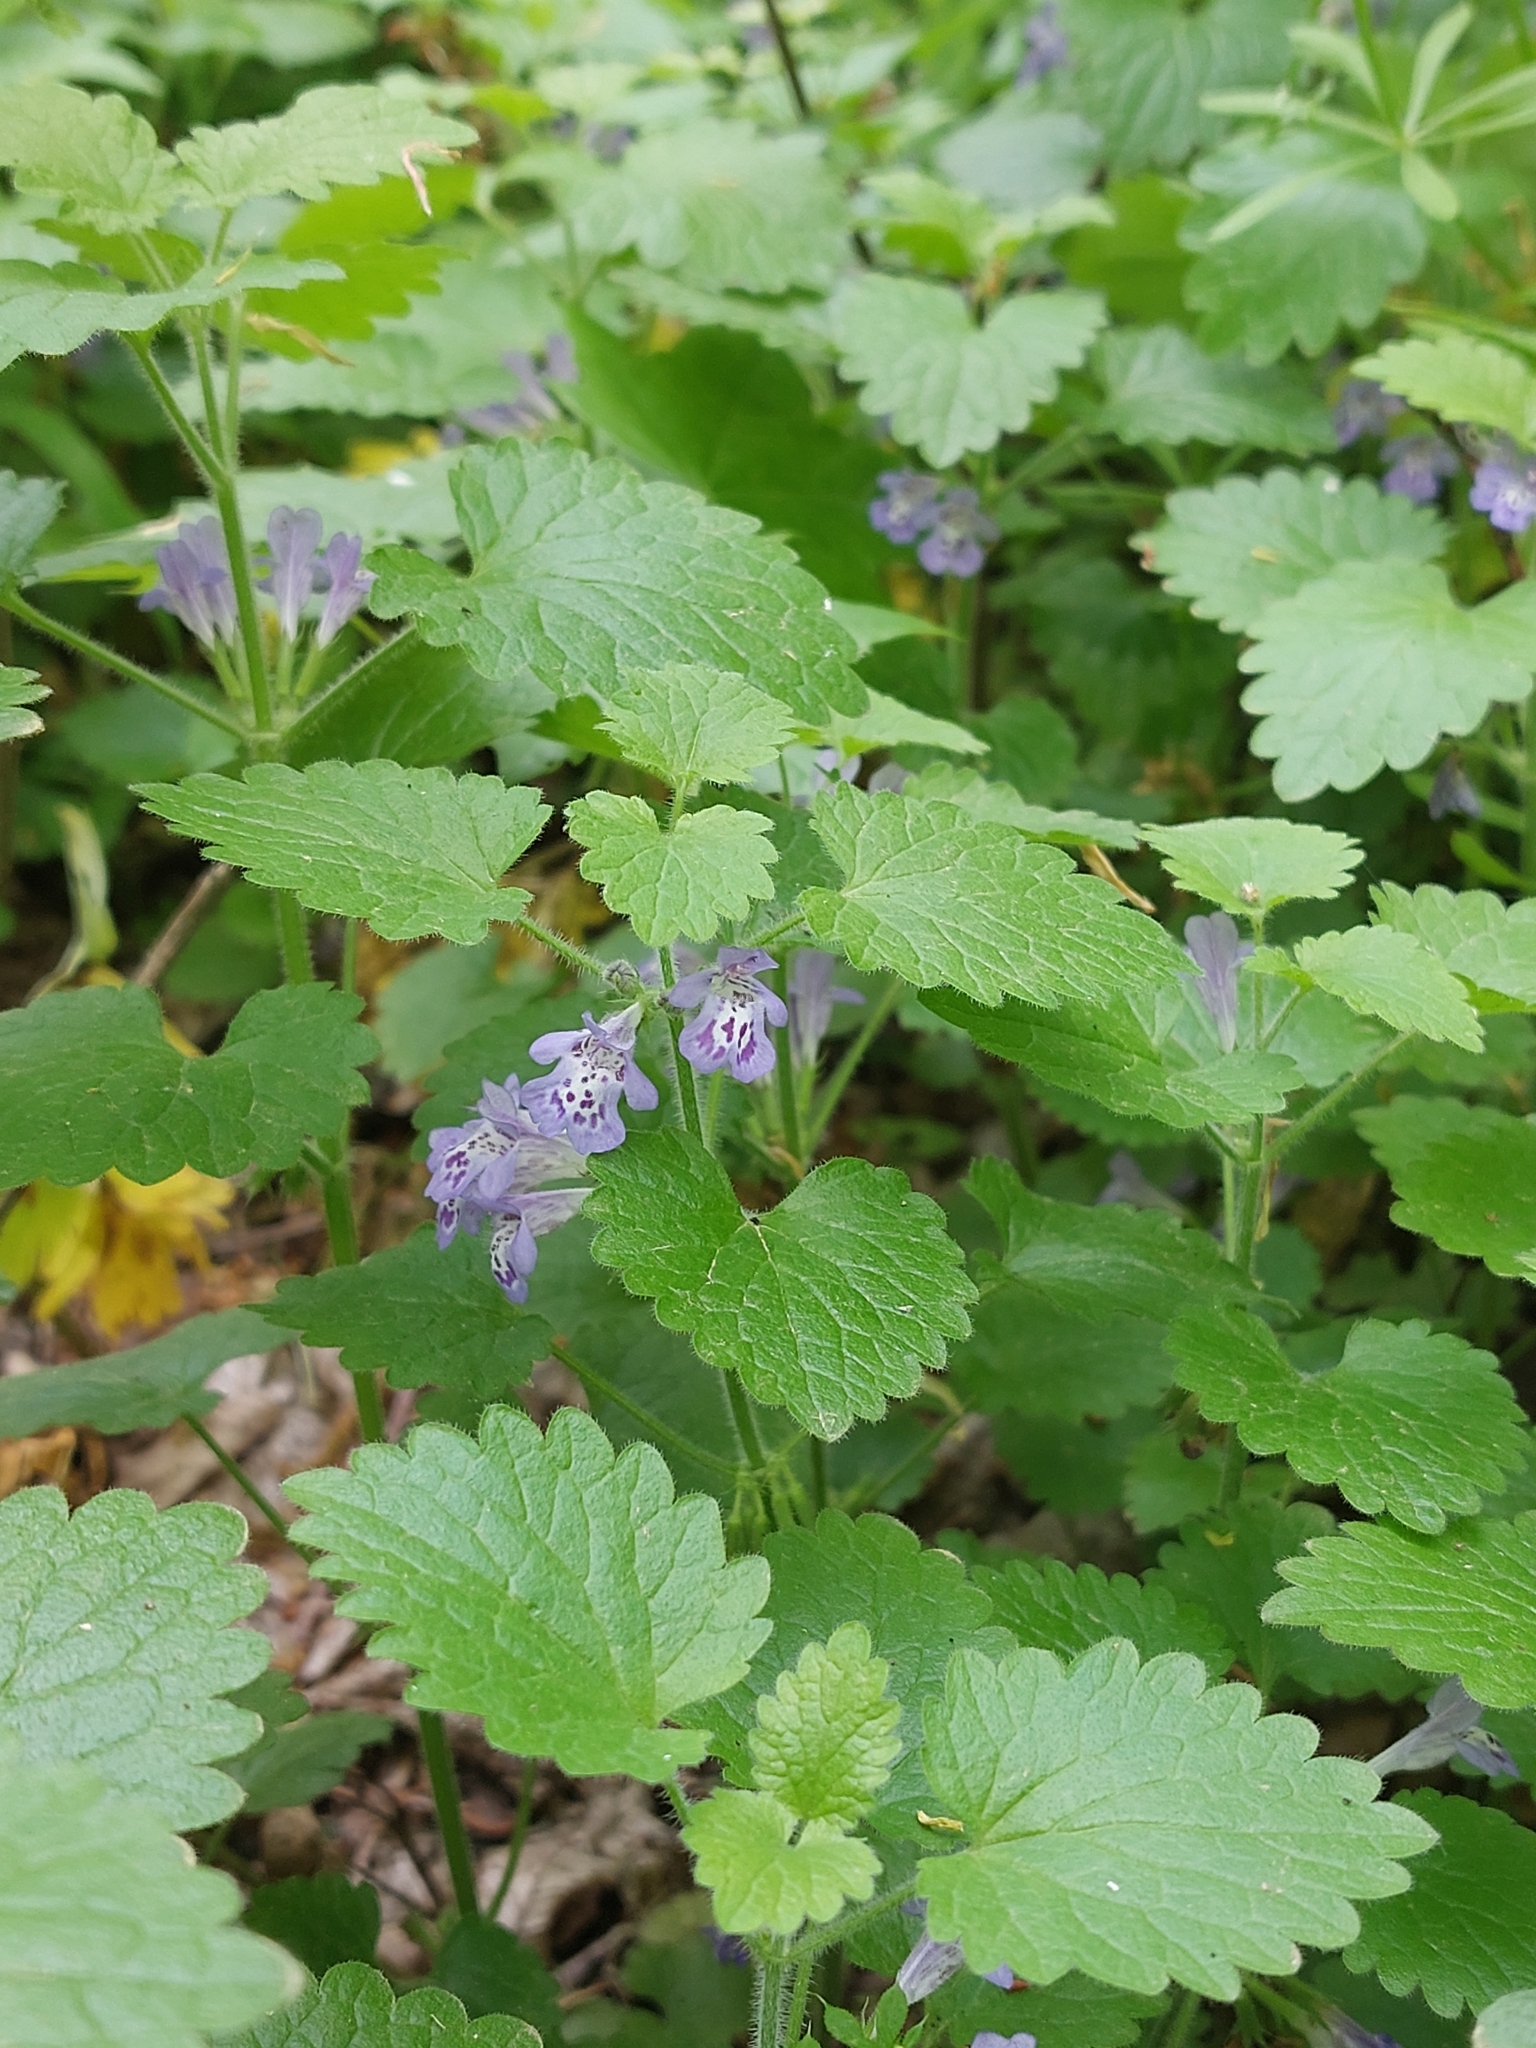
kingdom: Plantae
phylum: Tracheophyta
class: Magnoliopsida
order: Lamiales
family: Lamiaceae
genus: Glechoma
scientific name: Glechoma hirsuta
